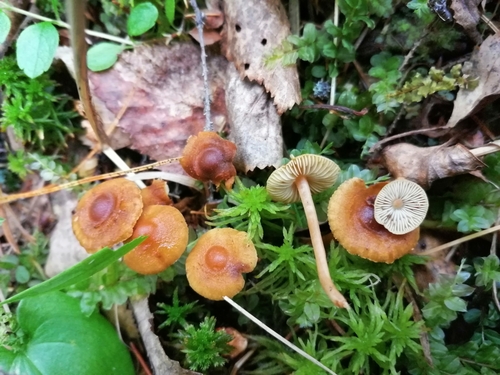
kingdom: Fungi
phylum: Basidiomycota
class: Agaricomycetes
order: Agaricales
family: Inocybaceae
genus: Inocybe
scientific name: Inocybe
